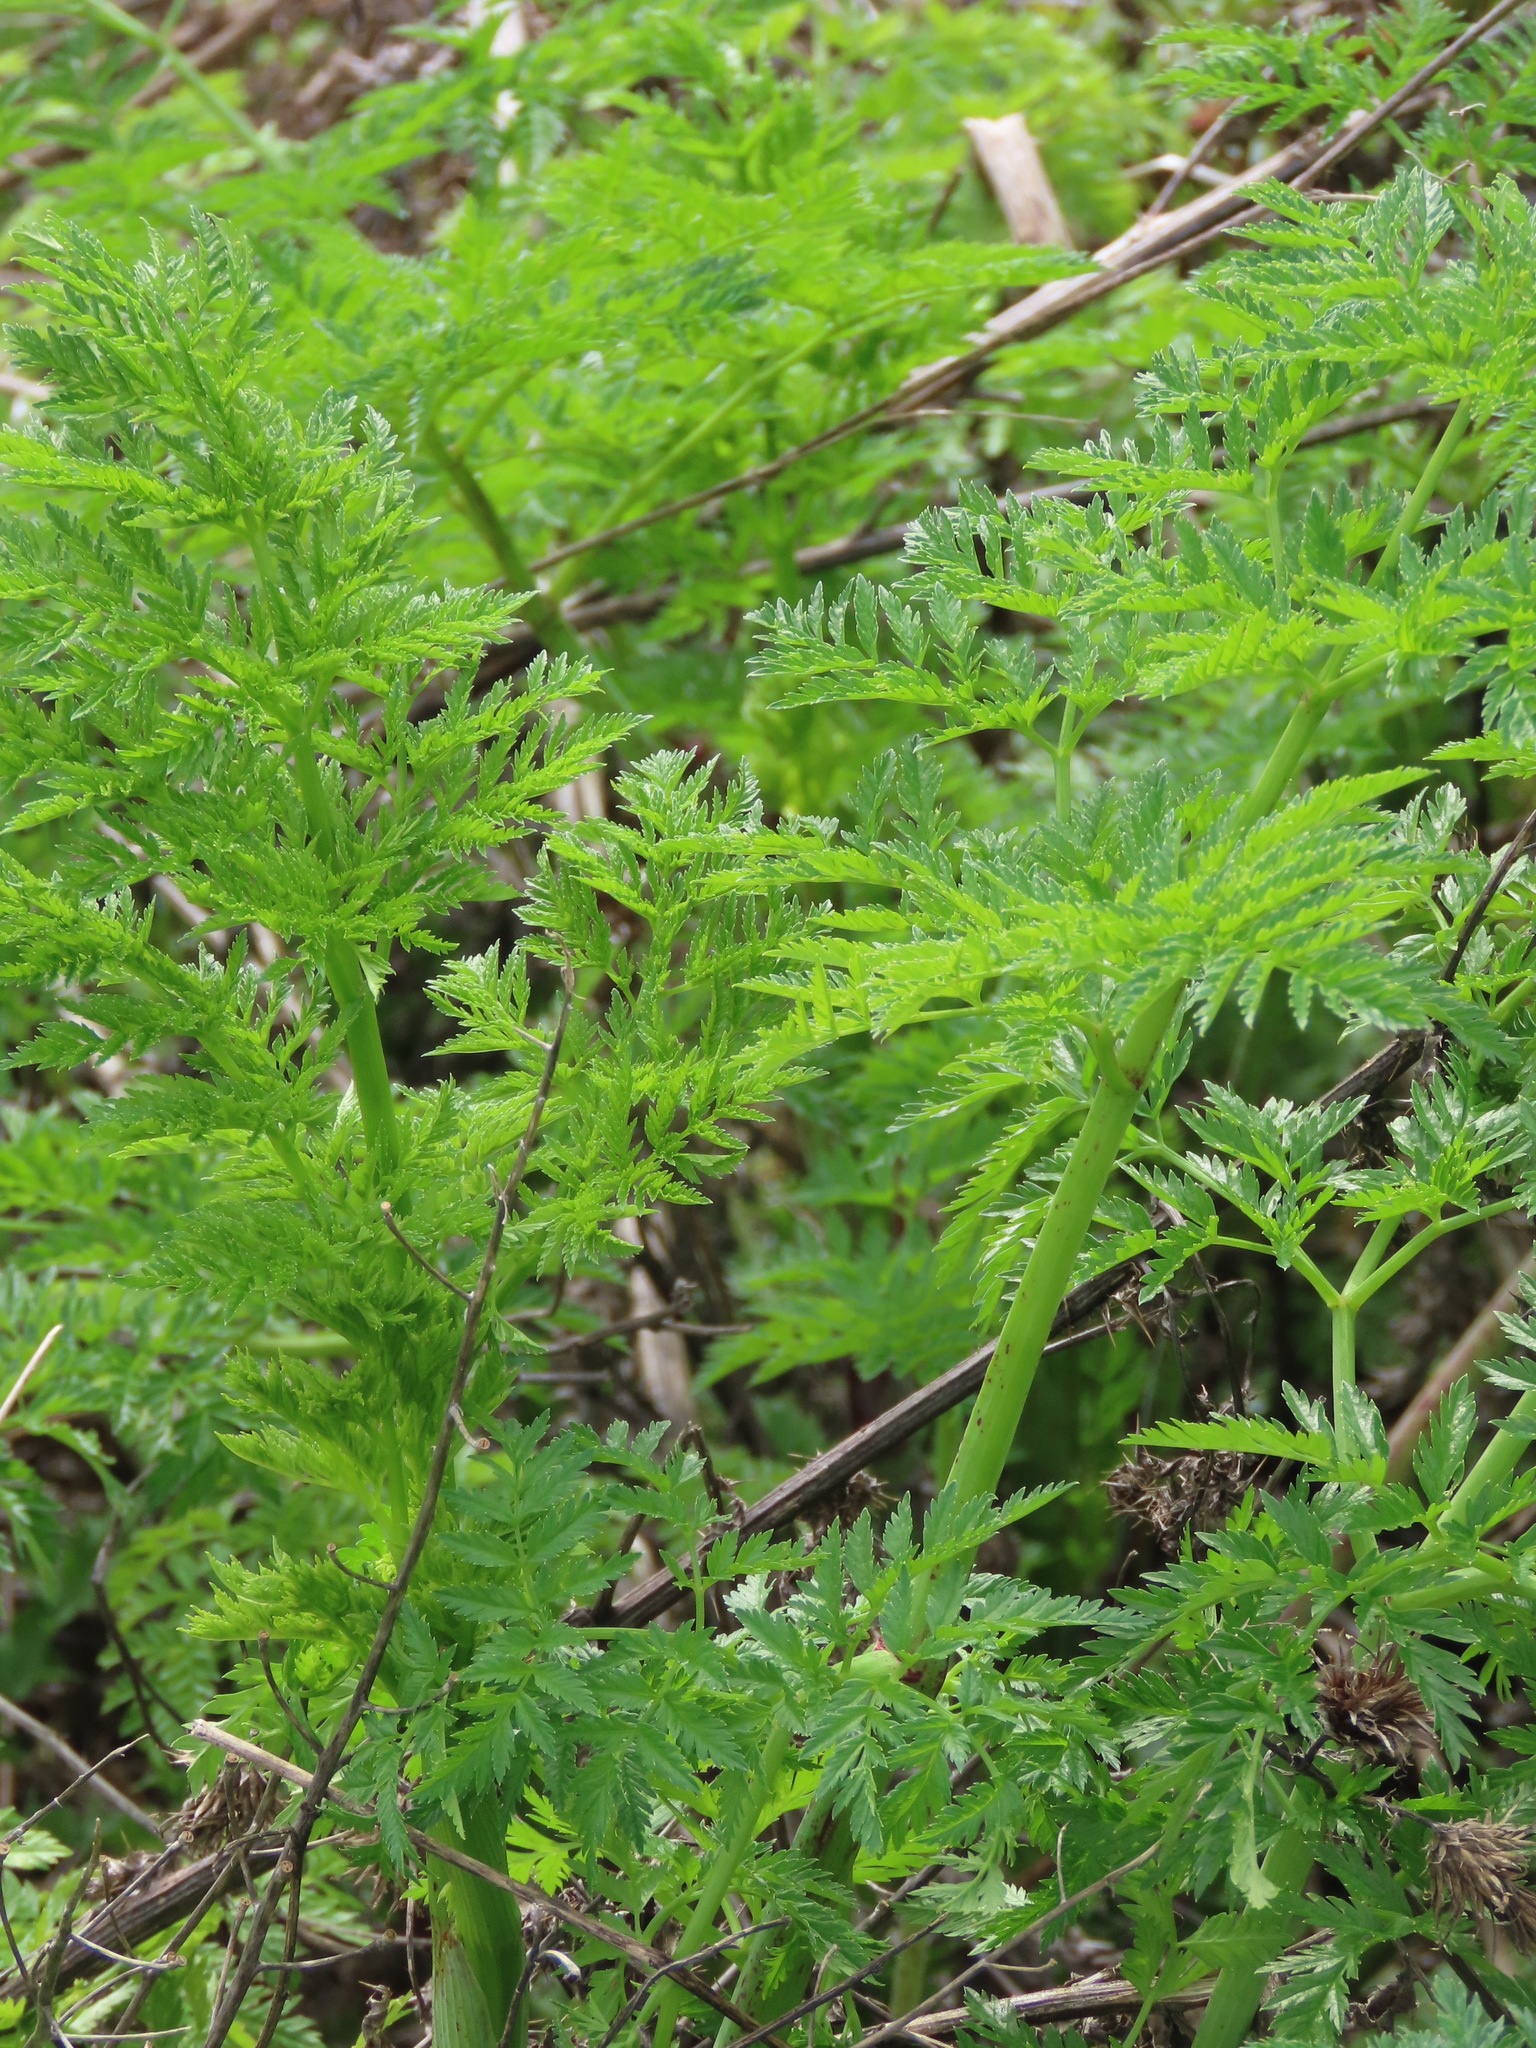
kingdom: Plantae
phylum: Tracheophyta
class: Magnoliopsida
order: Apiales
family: Apiaceae
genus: Conium
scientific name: Conium maculatum
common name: Hemlock
